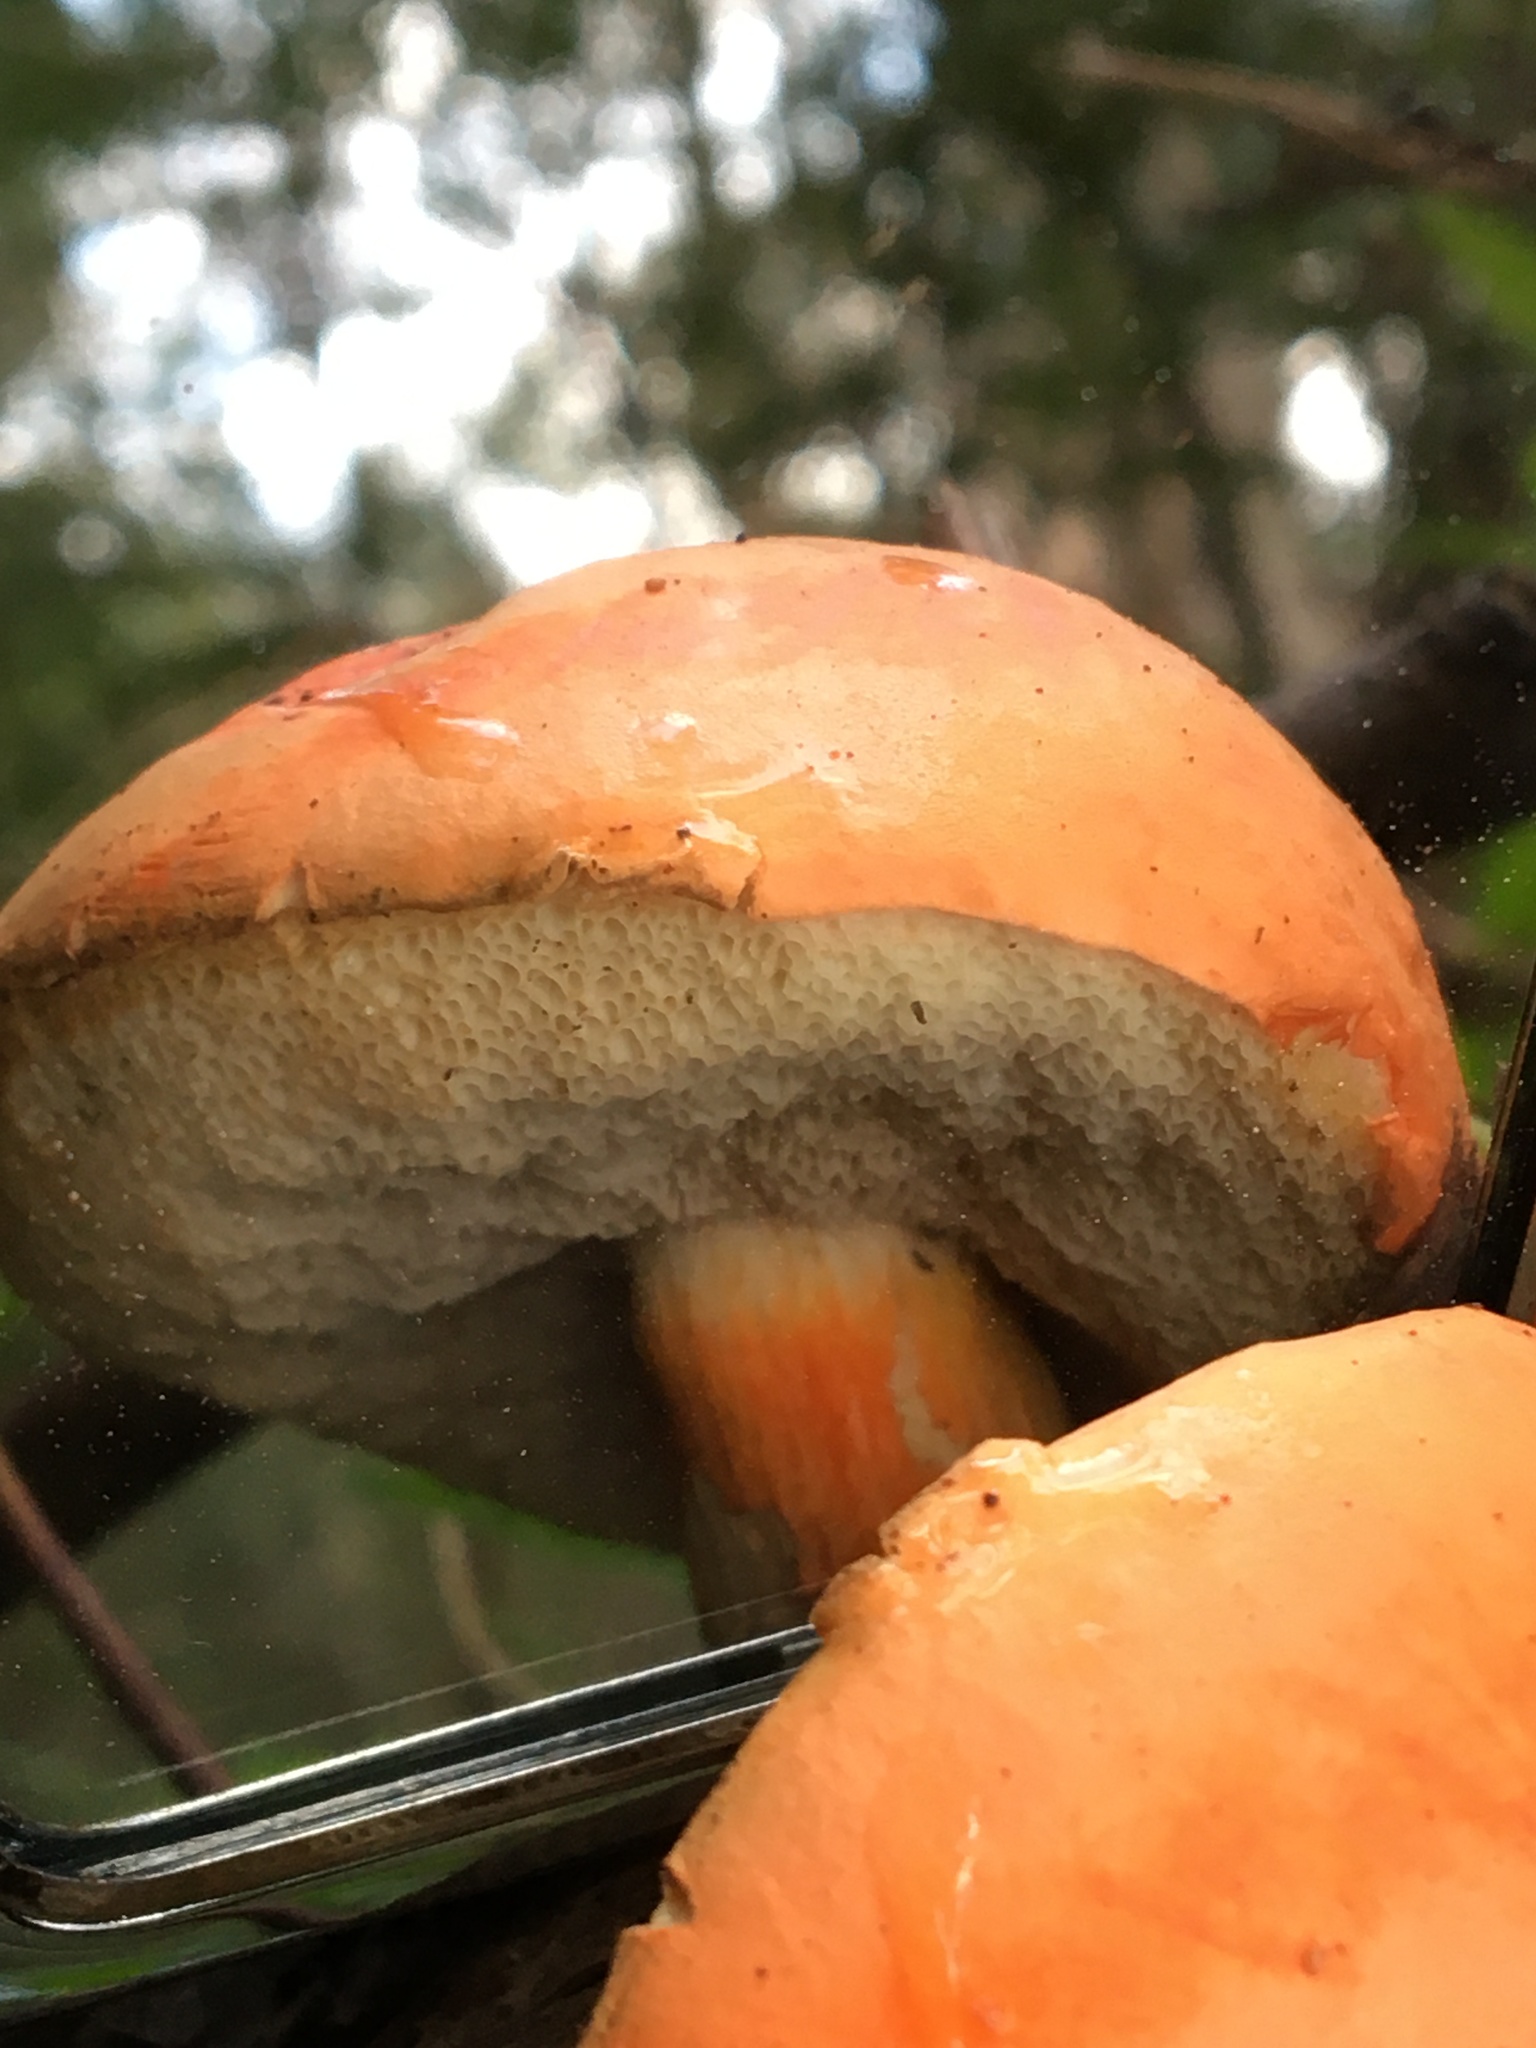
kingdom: Fungi
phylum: Basidiomycota
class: Agaricomycetes
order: Boletales
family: Boletaceae
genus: Tylopilus
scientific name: Tylopilus balloui
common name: Burnt-orange bolete
